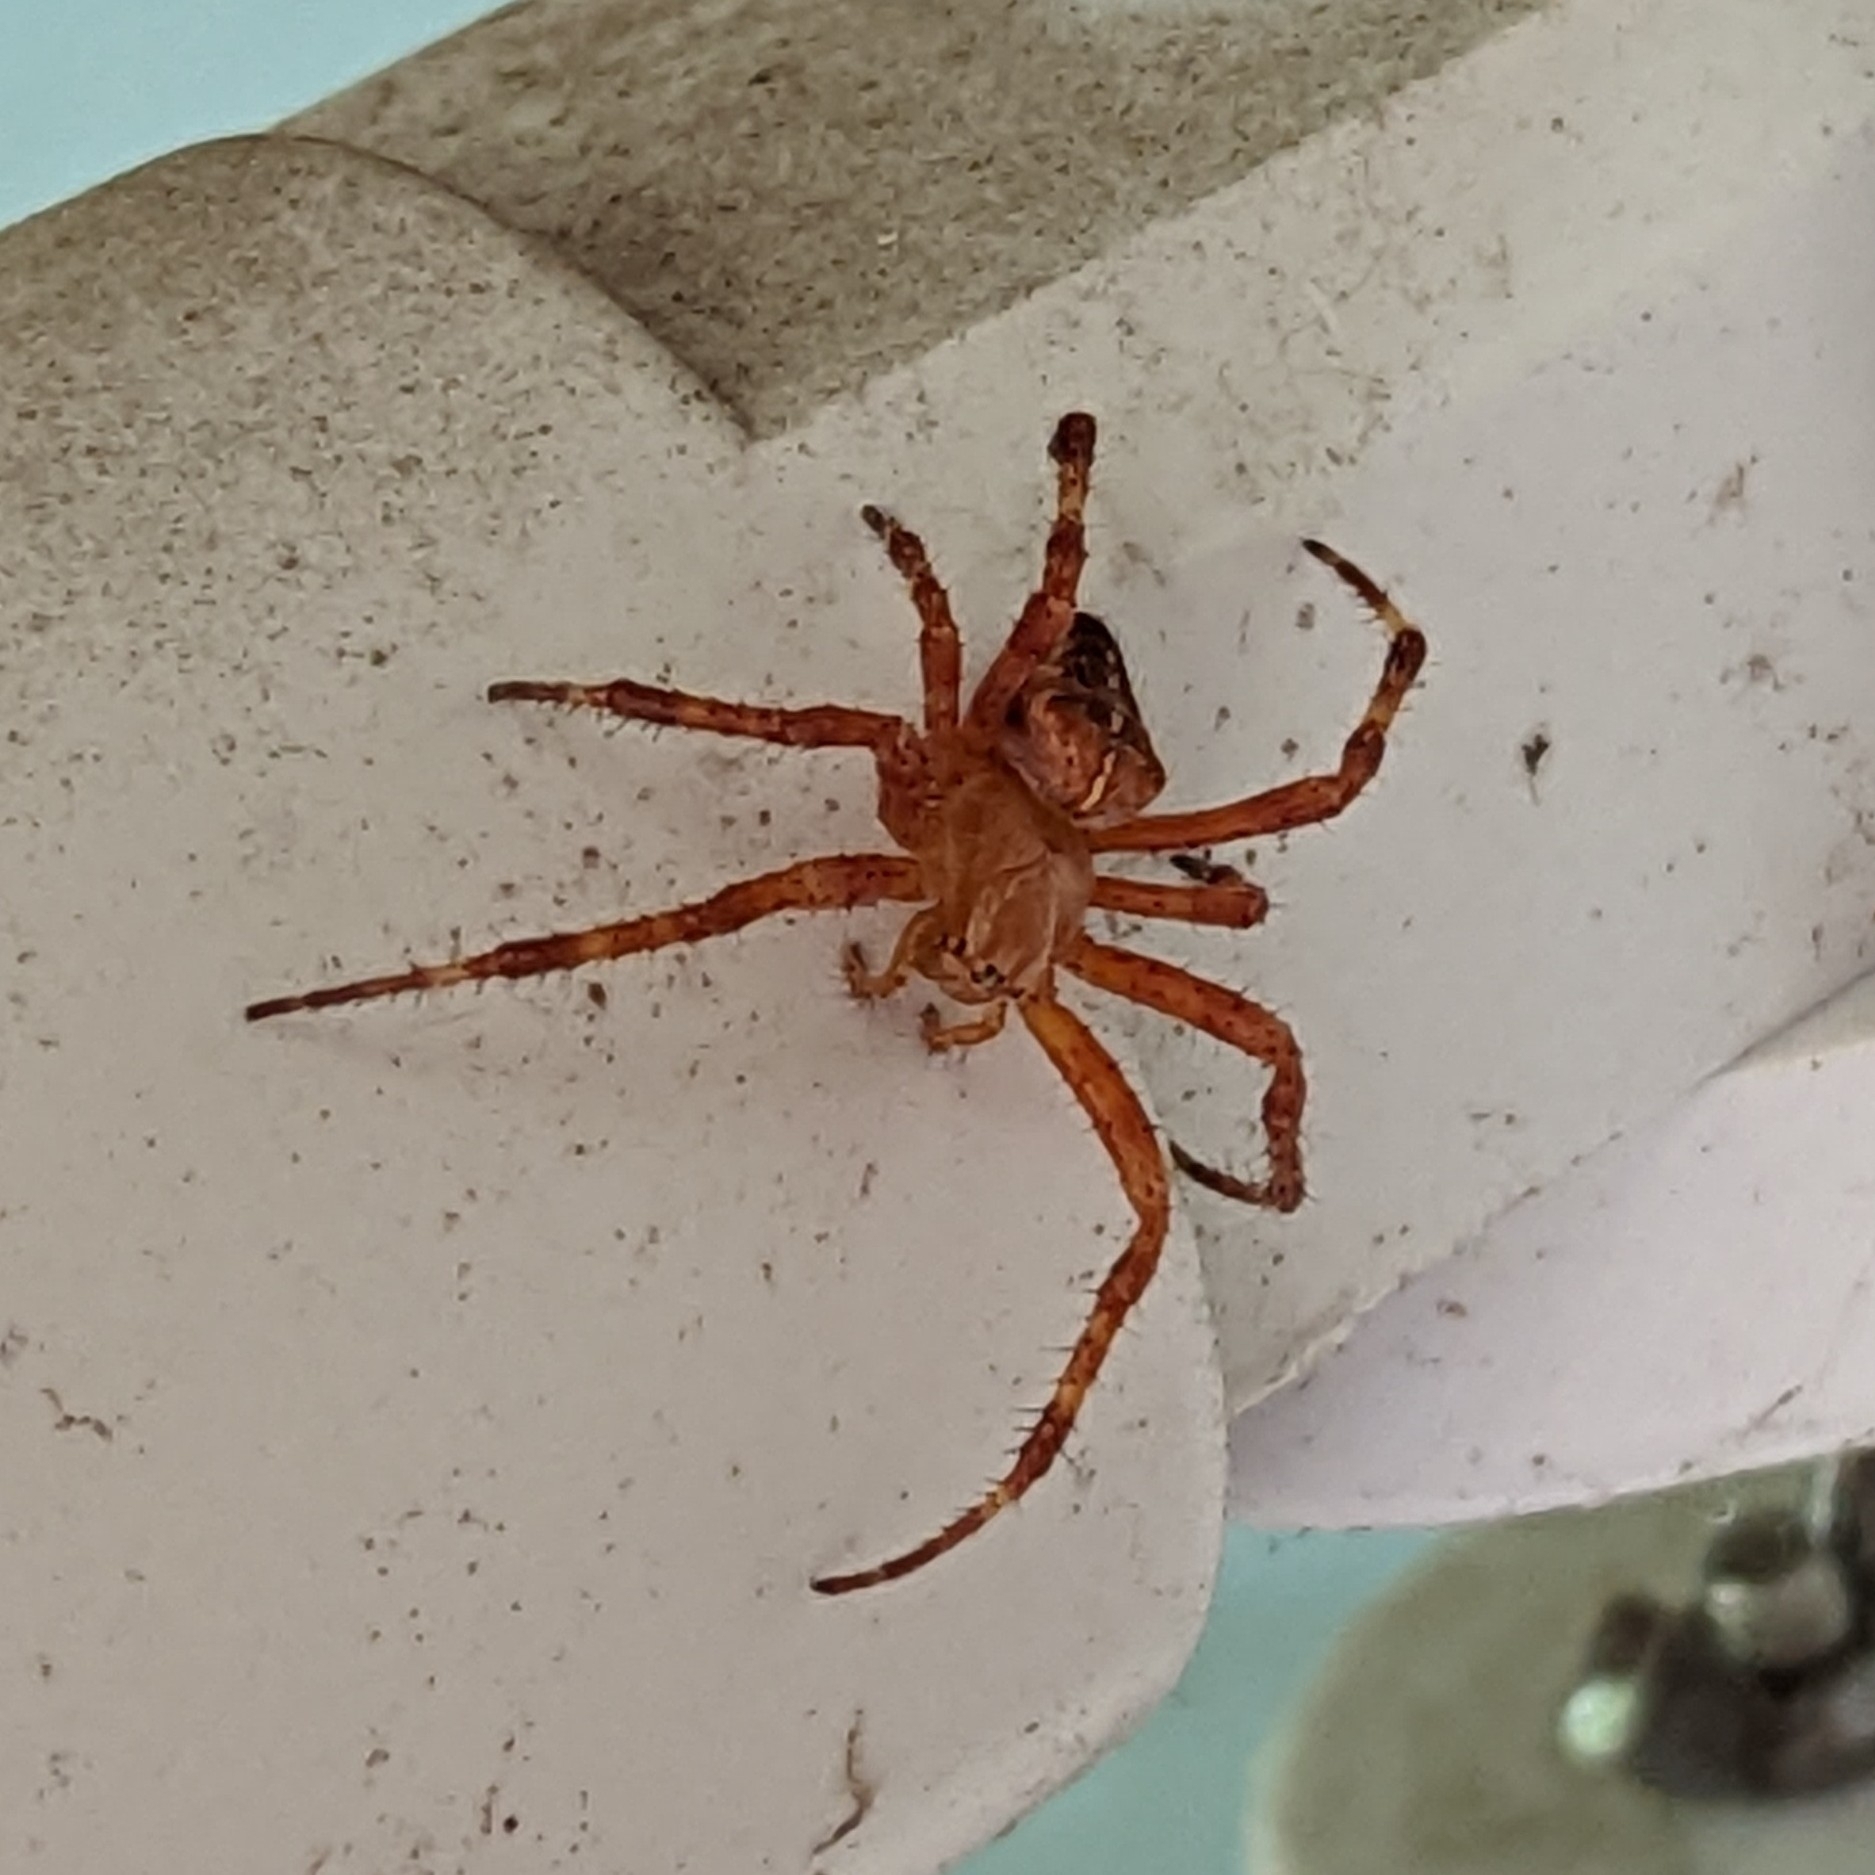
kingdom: Animalia
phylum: Arthropoda
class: Arachnida
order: Araneae
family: Araneidae
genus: Araneus
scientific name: Araneus diadematus
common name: Cross orbweaver
